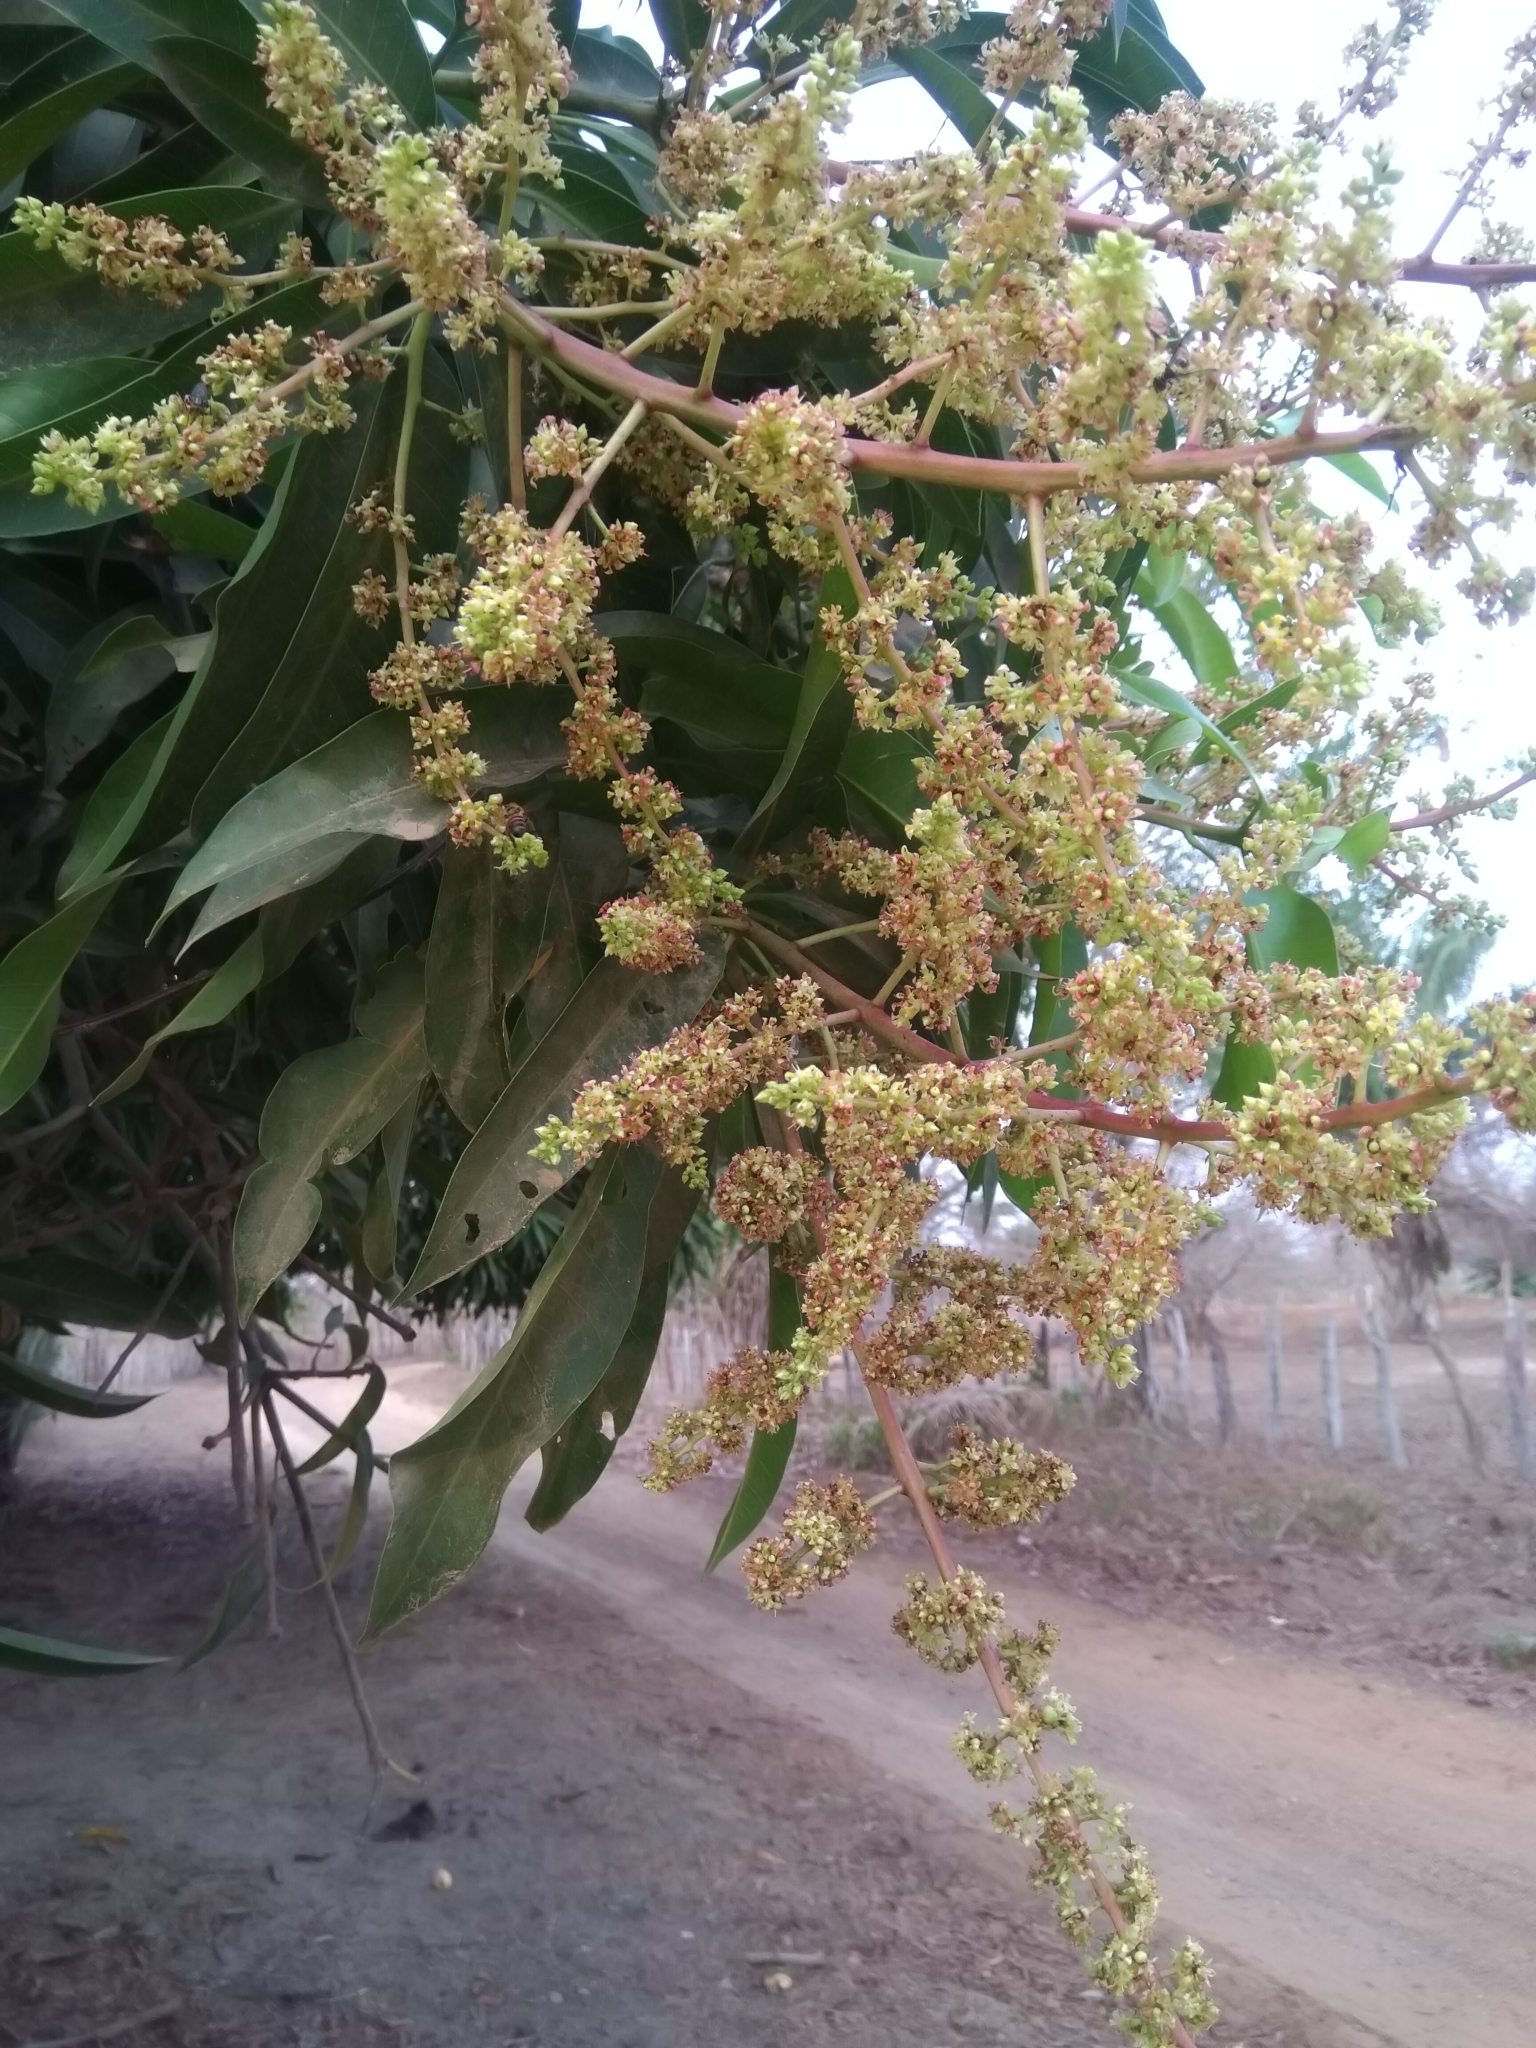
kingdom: Plantae
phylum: Tracheophyta
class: Magnoliopsida
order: Sapindales
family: Anacardiaceae
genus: Mangifera
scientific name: Mangifera indica
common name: Mango
